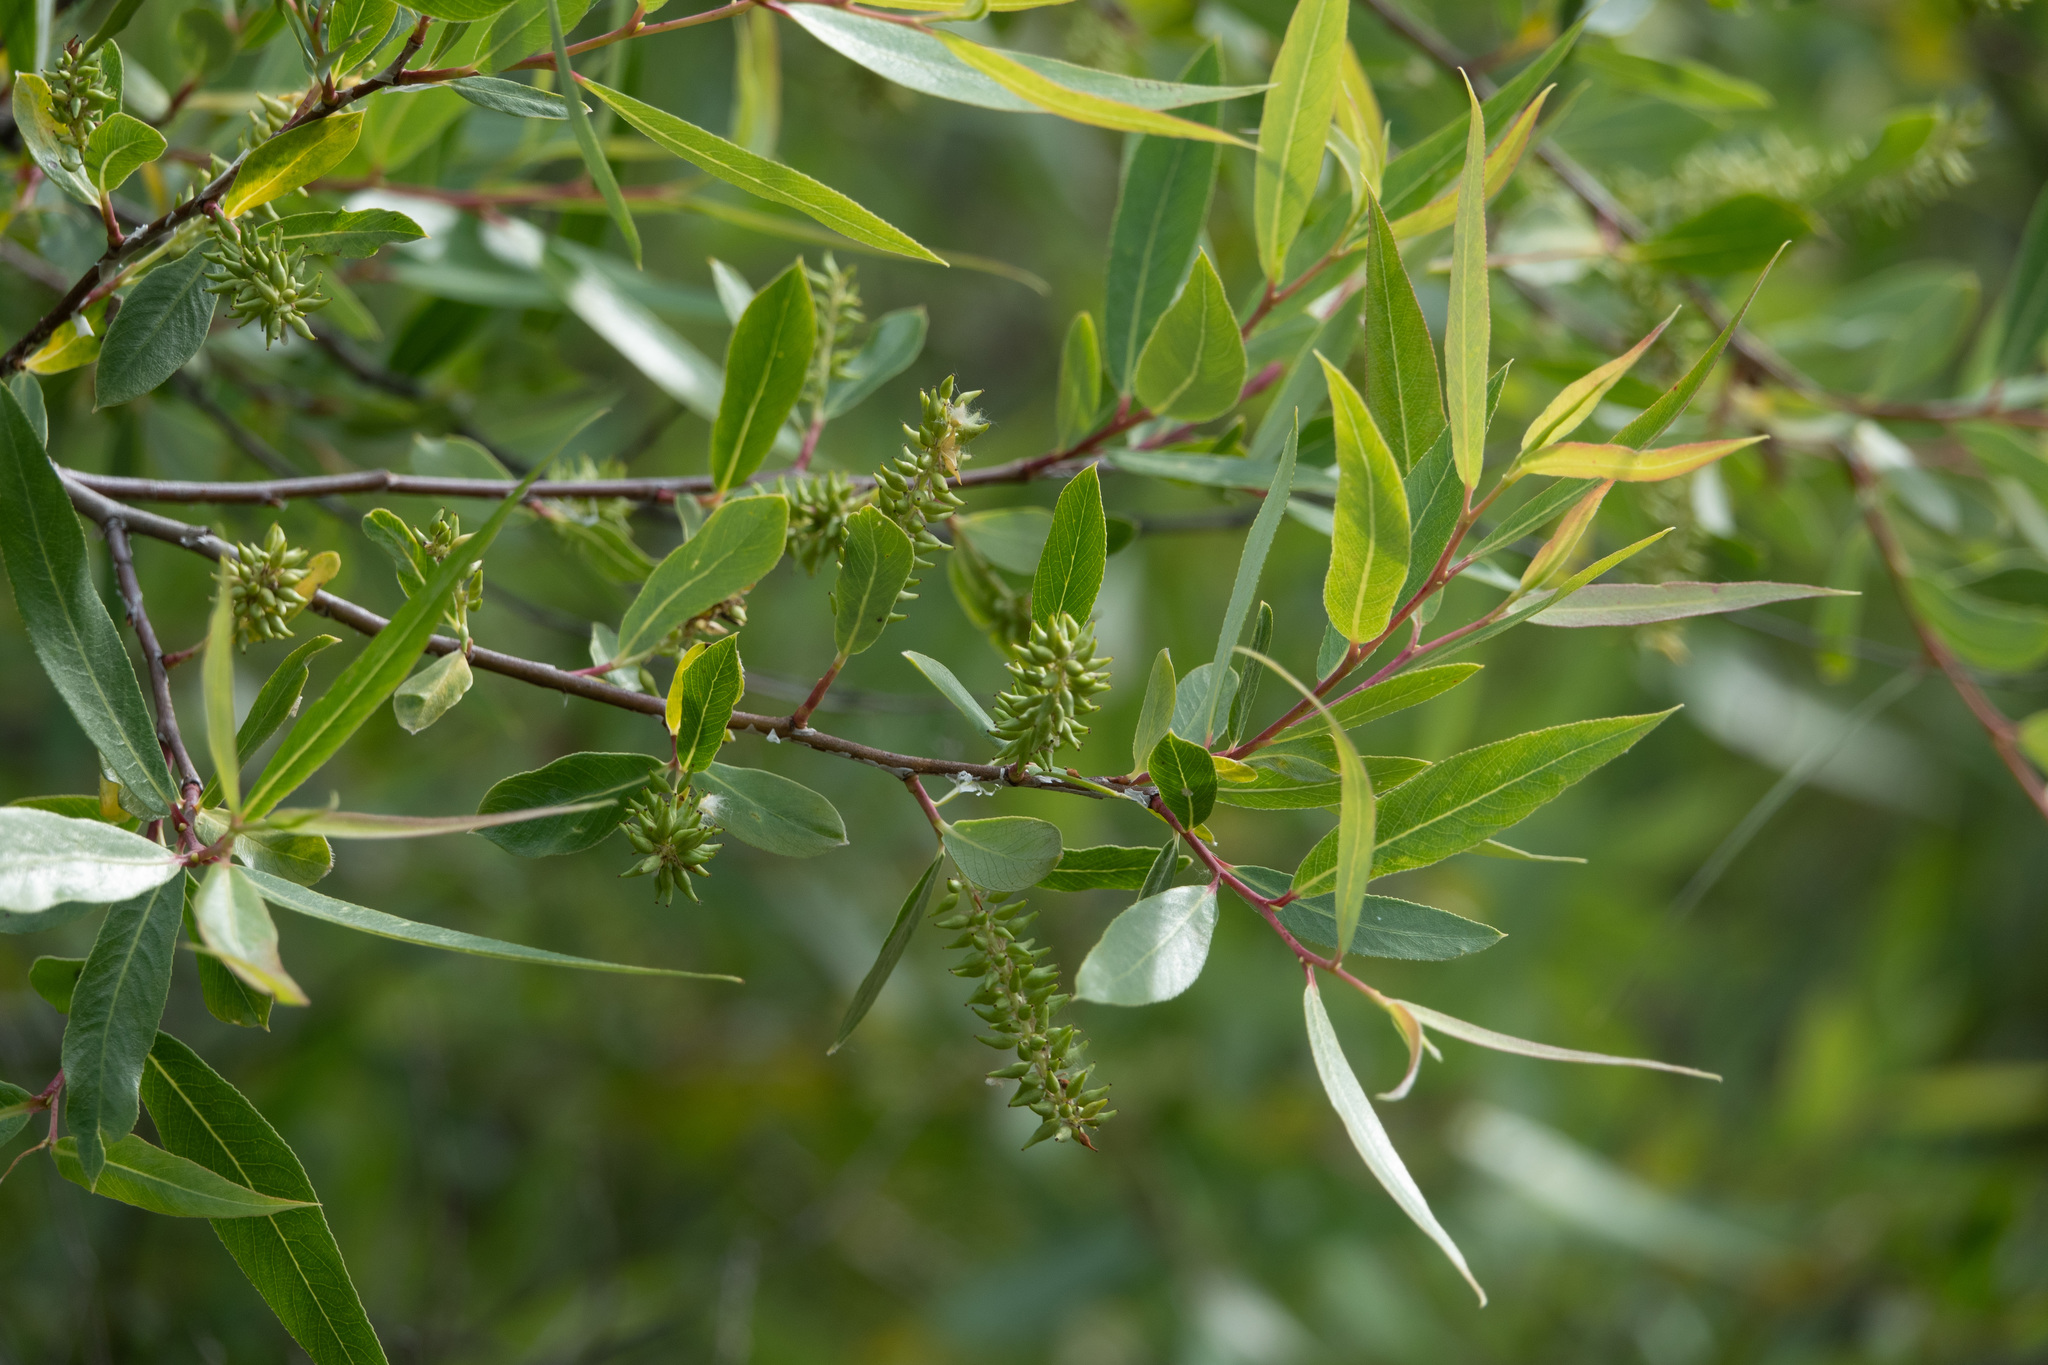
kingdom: Plantae
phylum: Tracheophyta
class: Magnoliopsida
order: Malpighiales
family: Salicaceae
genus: Salix
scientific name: Salix laevigata
